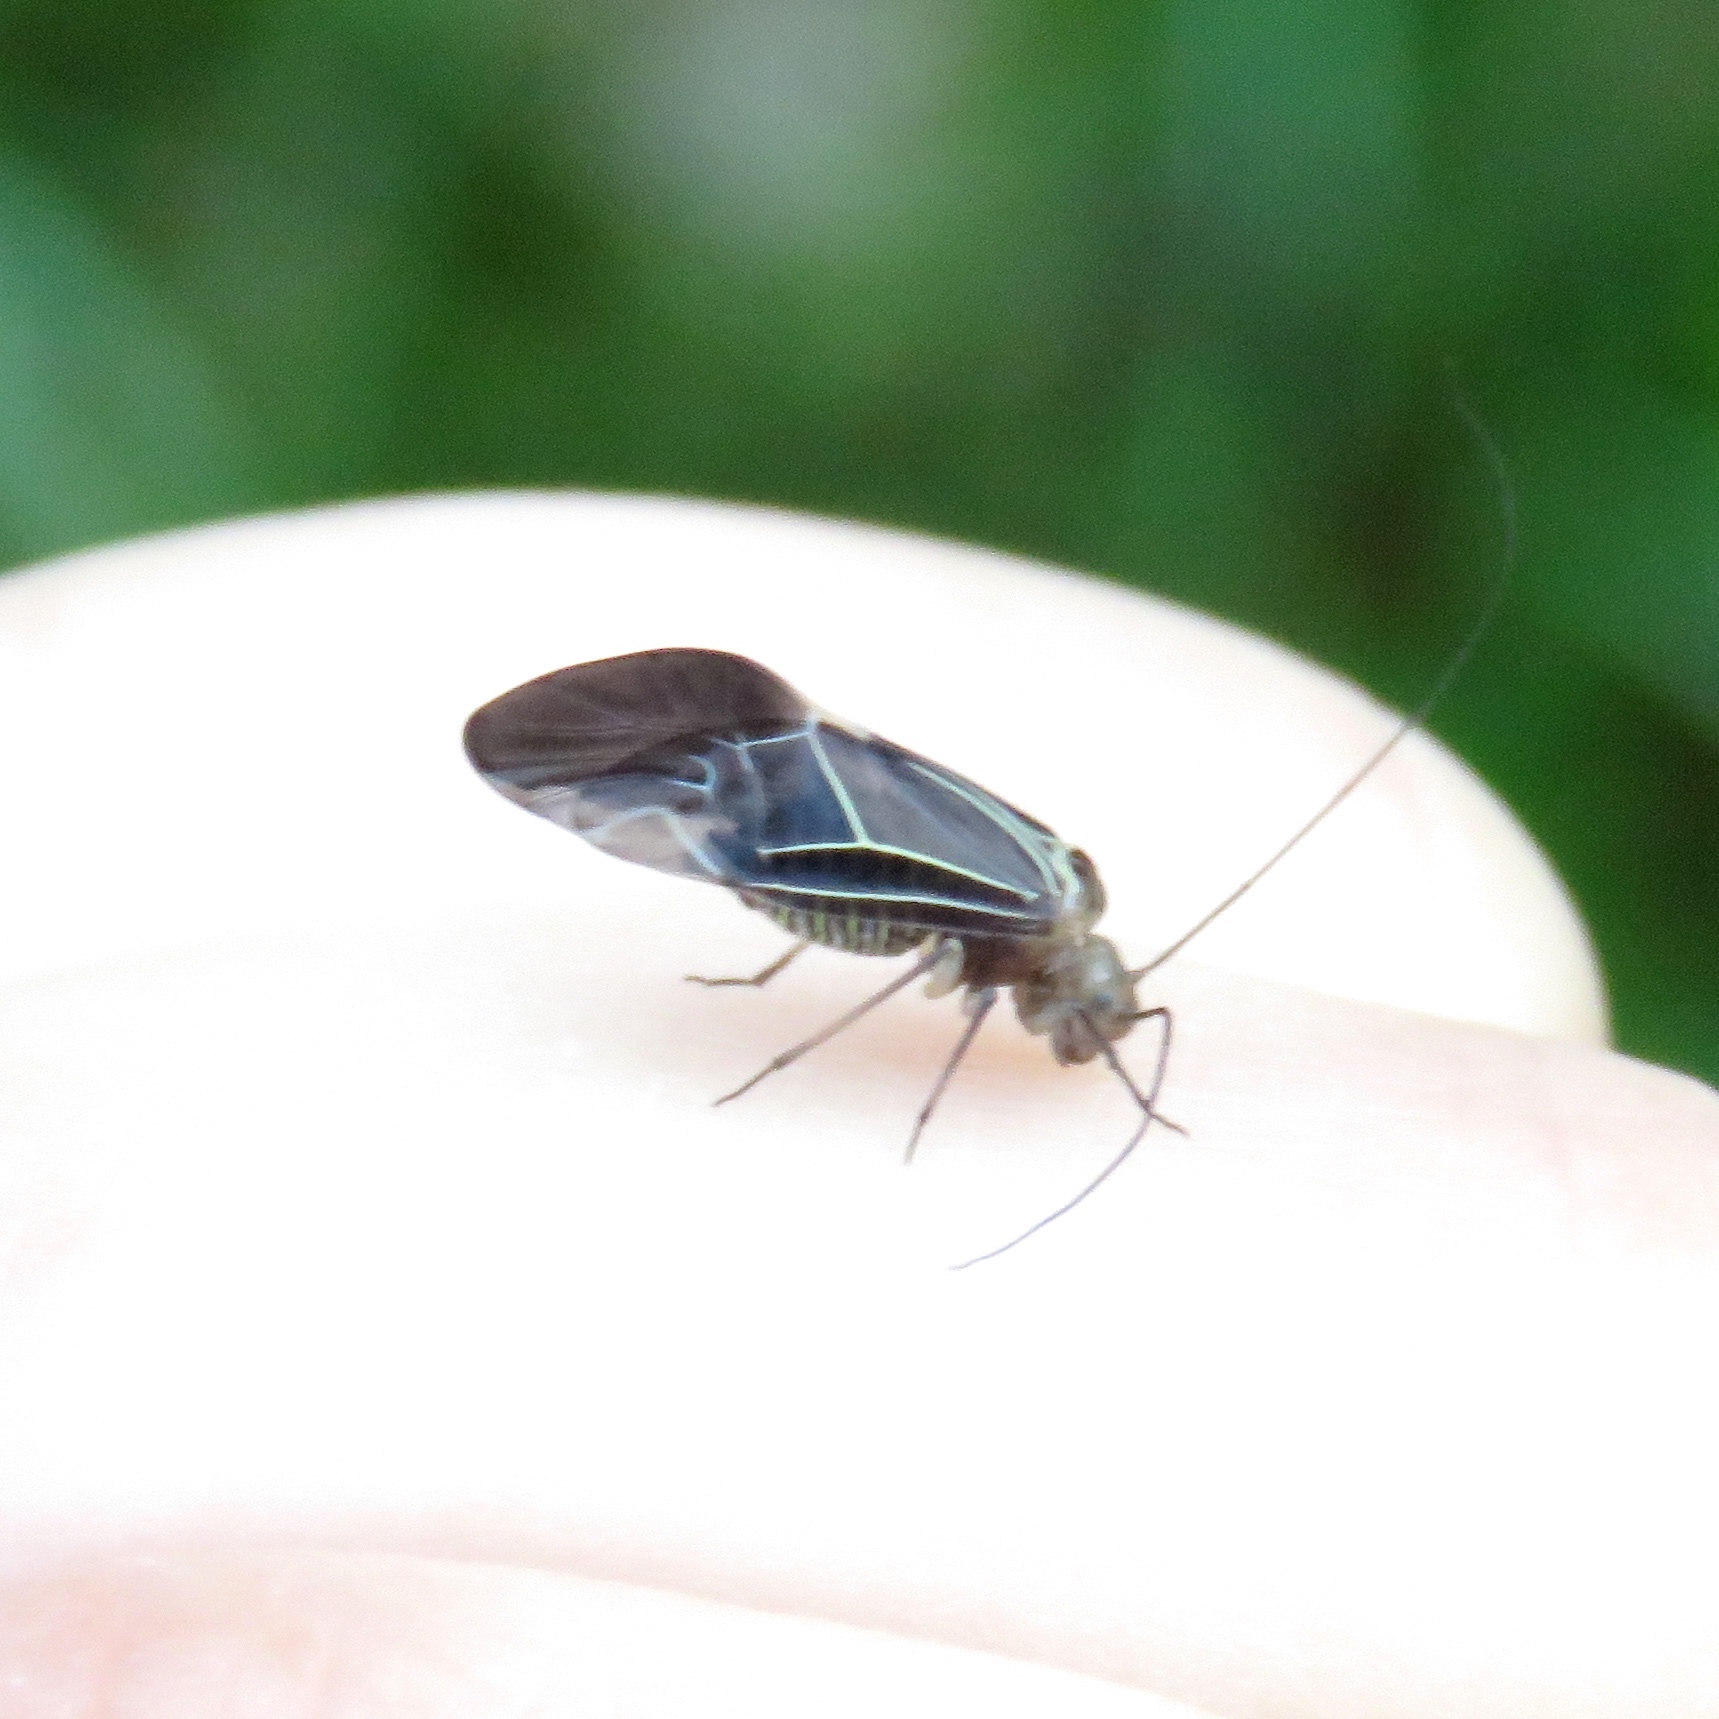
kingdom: Animalia
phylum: Arthropoda
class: Insecta
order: Psocodea
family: Psocidae
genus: Cerastipsocus
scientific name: Cerastipsocus venosus
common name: Tree cattle
